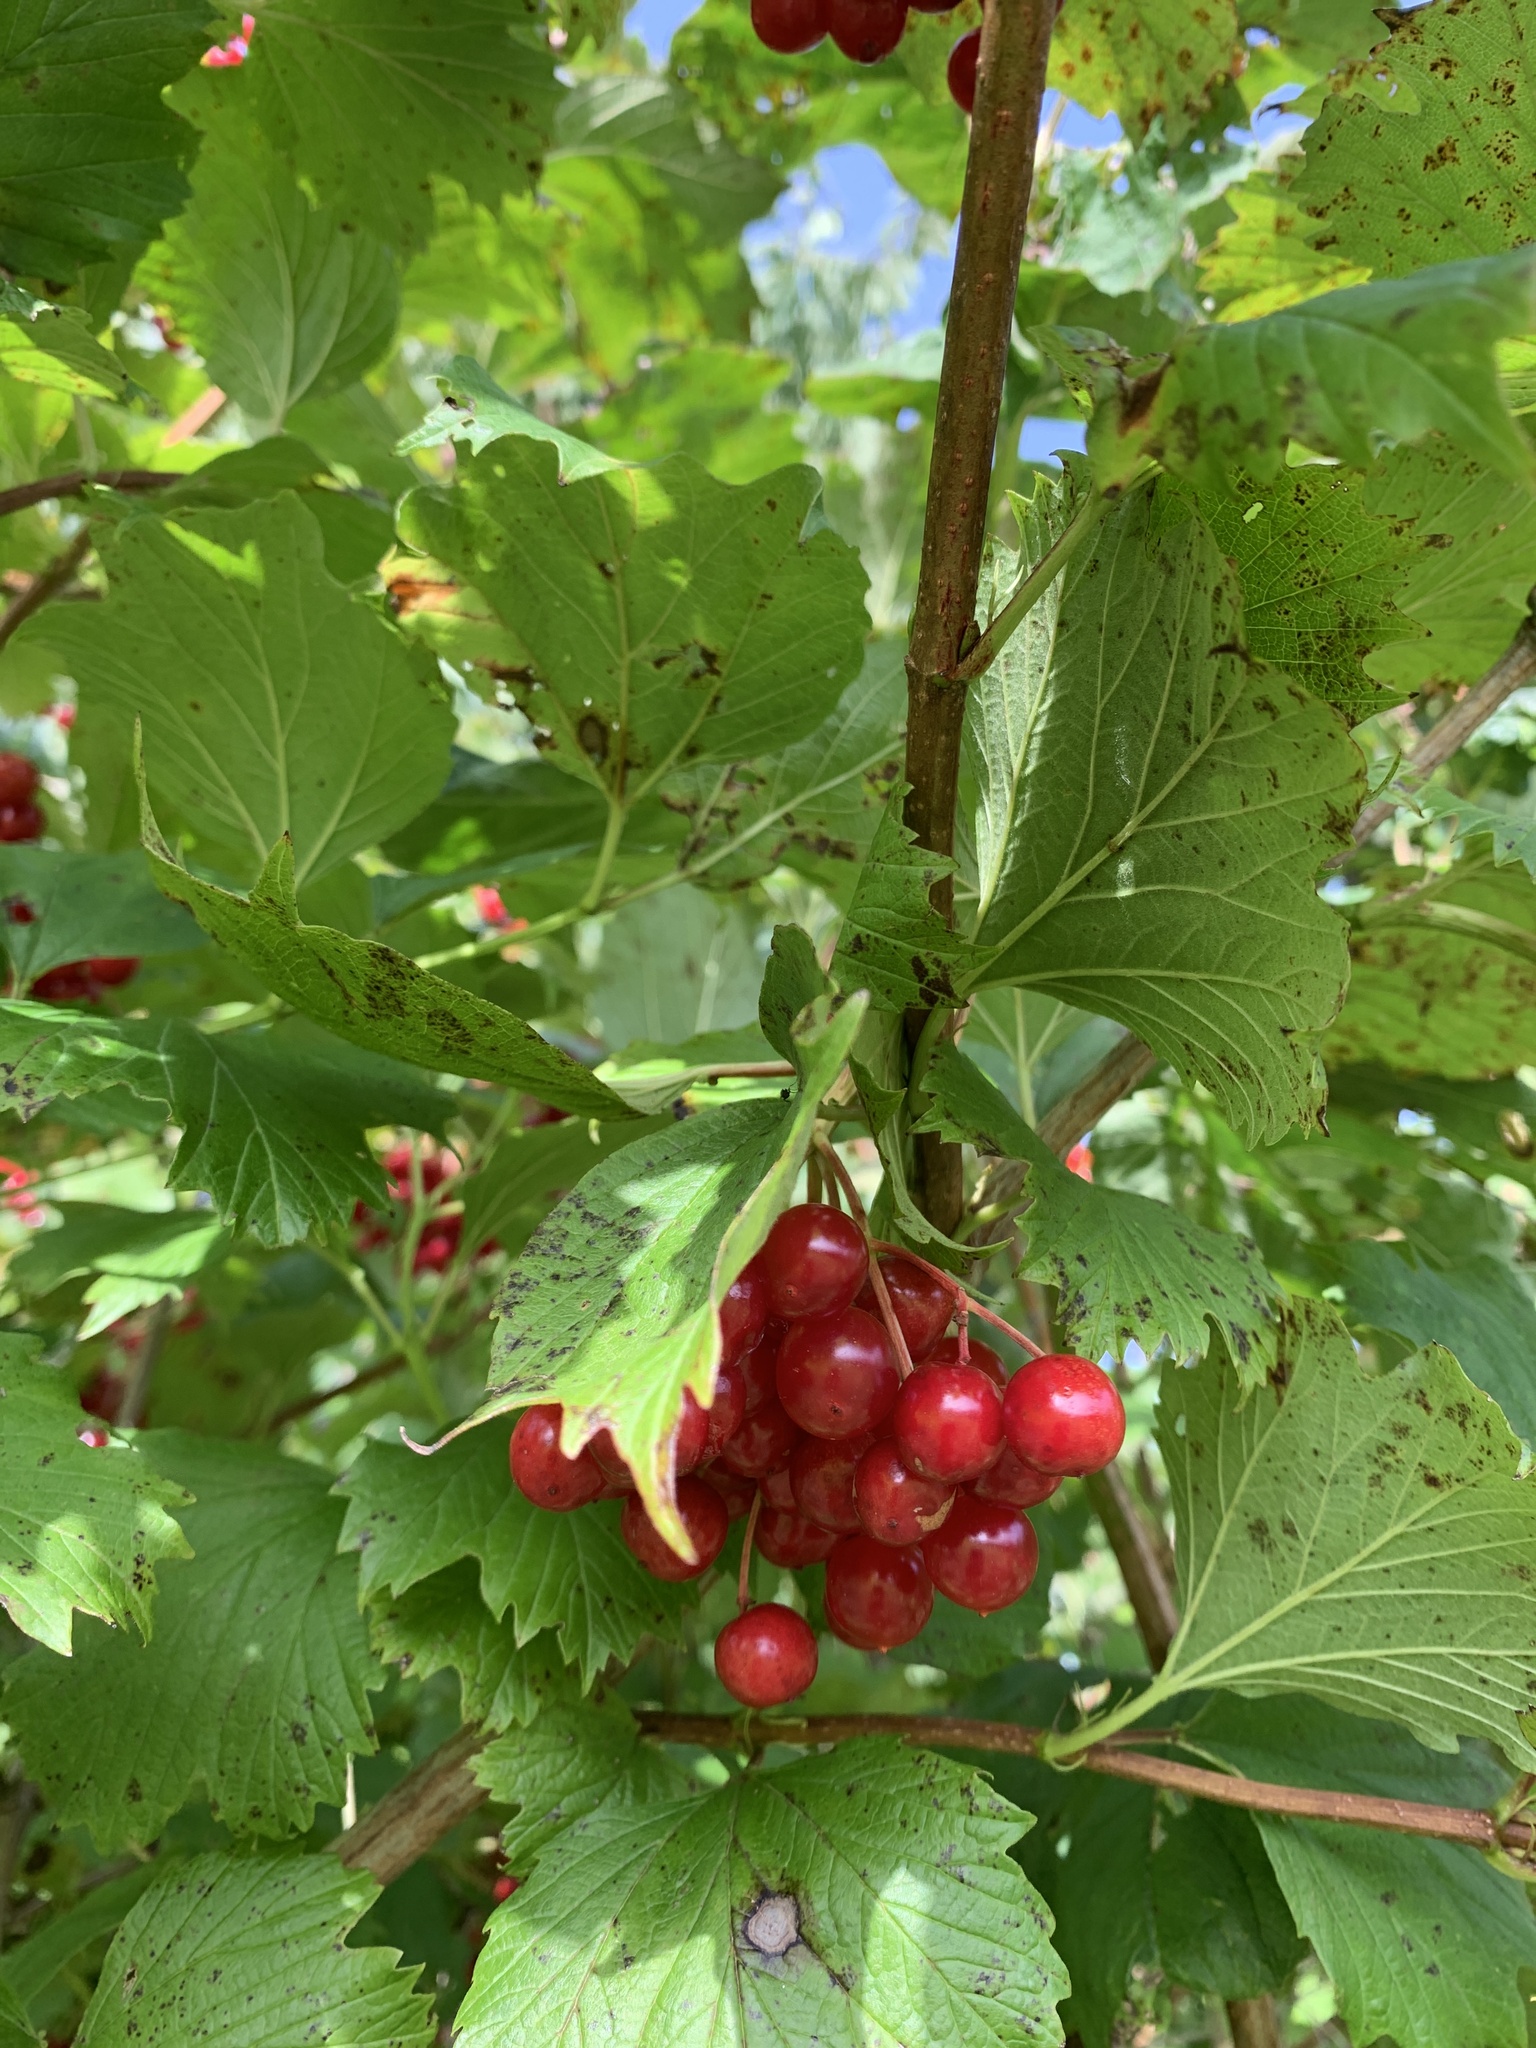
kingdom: Plantae
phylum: Tracheophyta
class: Magnoliopsida
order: Dipsacales
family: Viburnaceae
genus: Viburnum
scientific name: Viburnum opulus
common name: Guelder-rose
